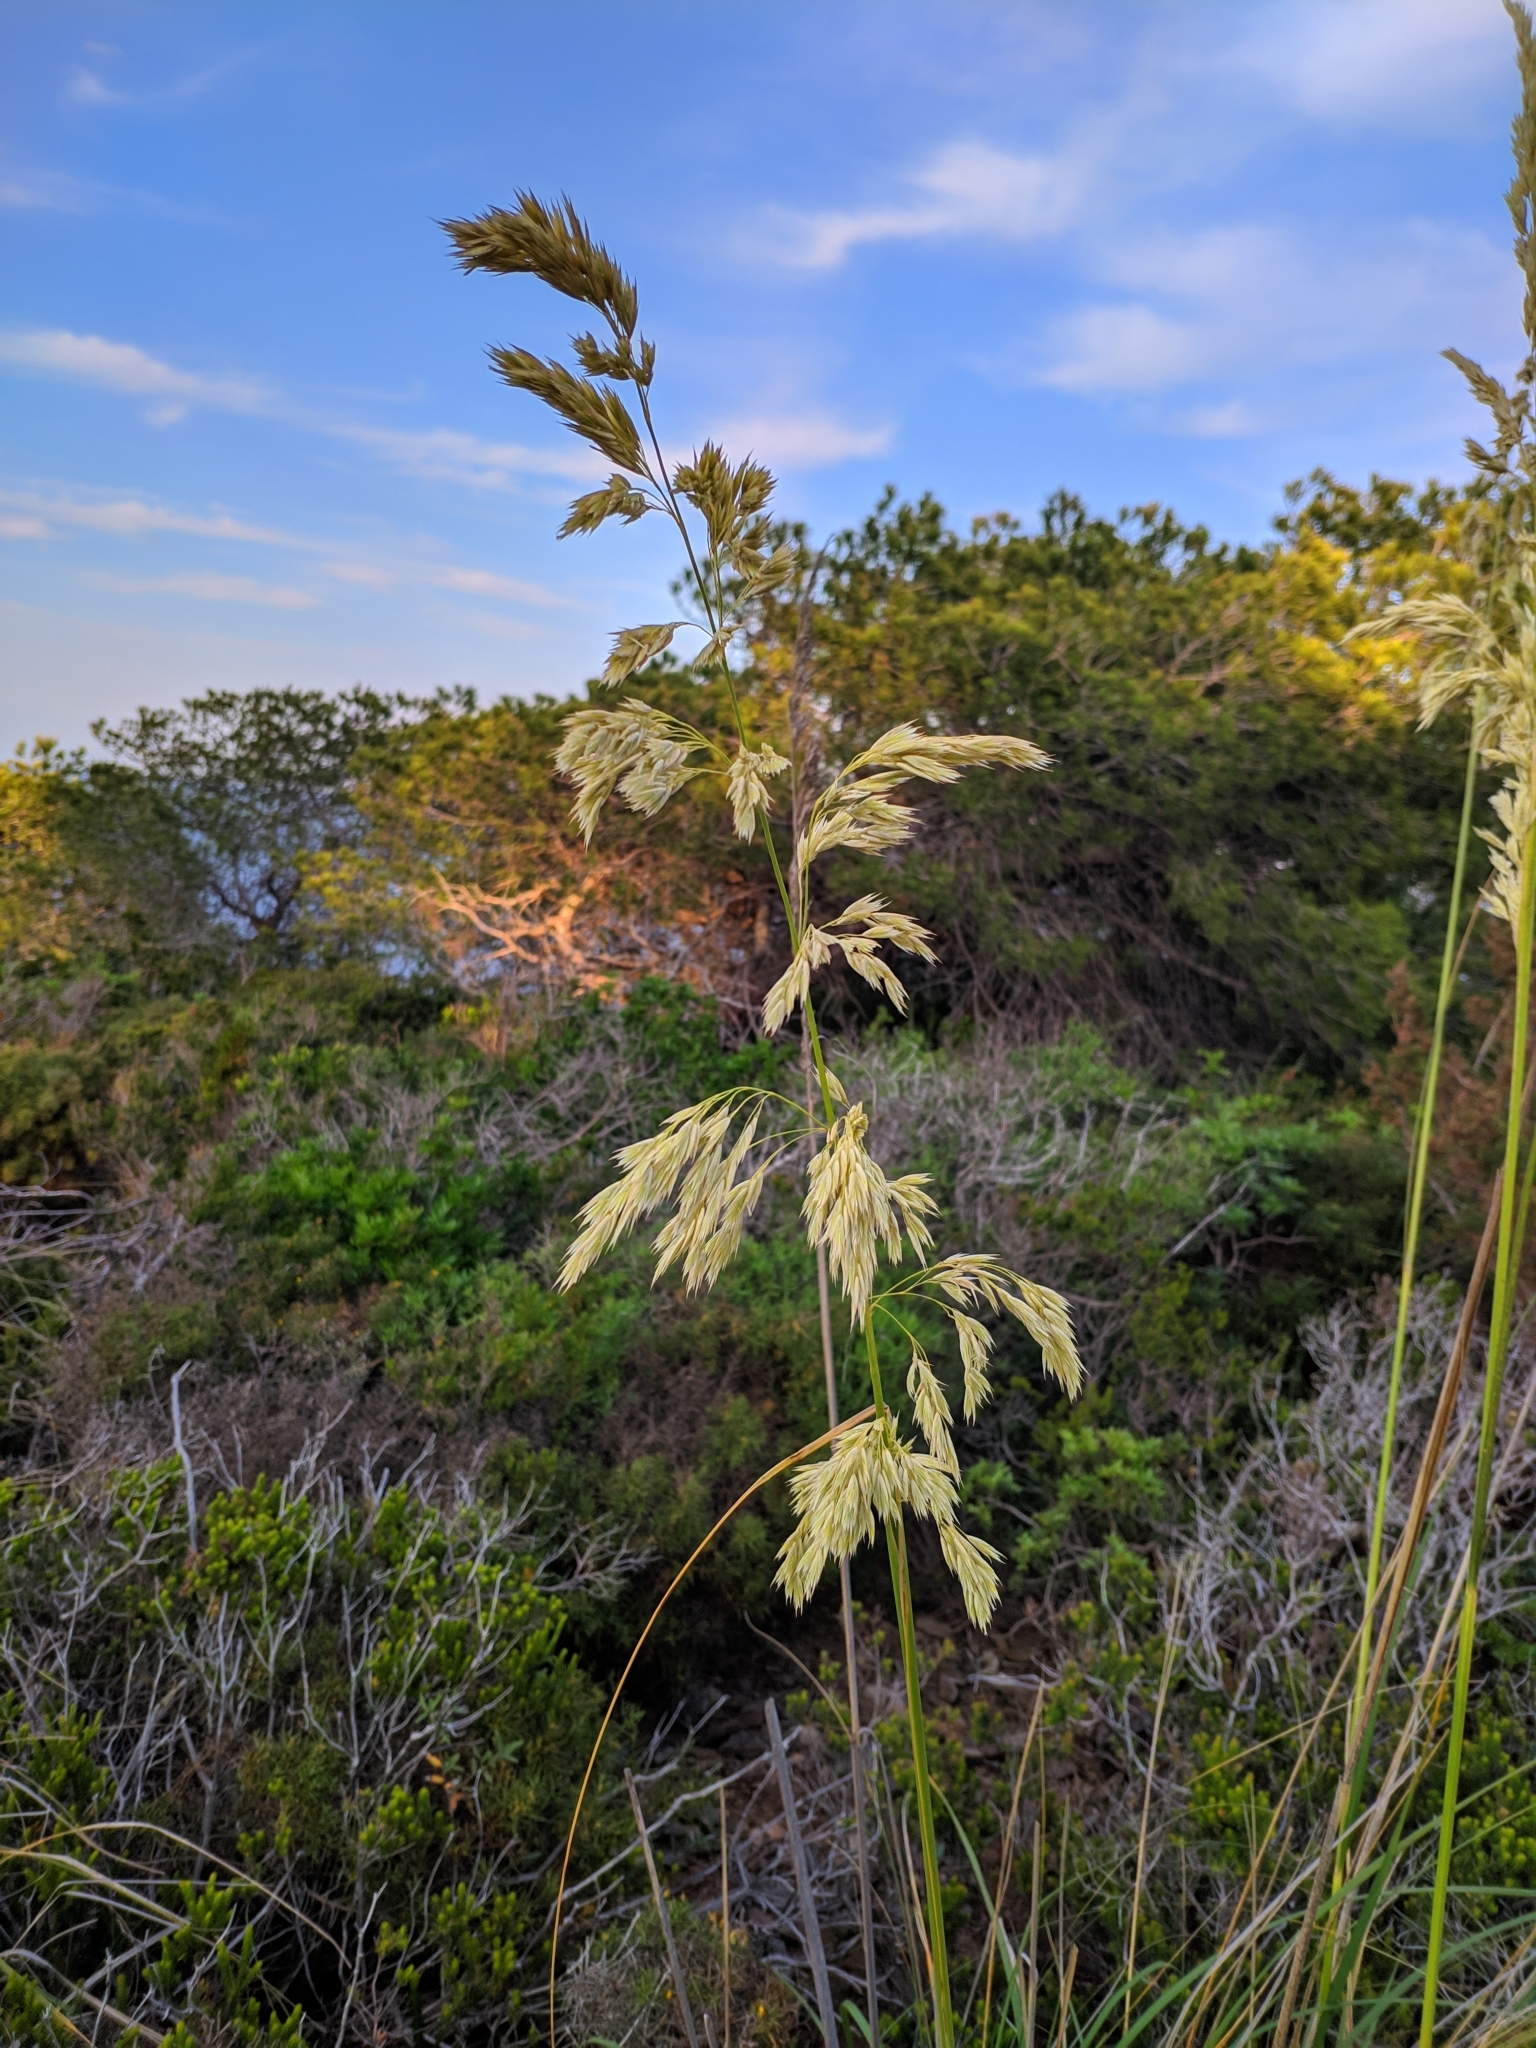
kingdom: Plantae
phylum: Tracheophyta
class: Liliopsida
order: Poales
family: Poaceae
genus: Ampelodesmos
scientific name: Ampelodesmos mauritanicus
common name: Mauritanian grass
